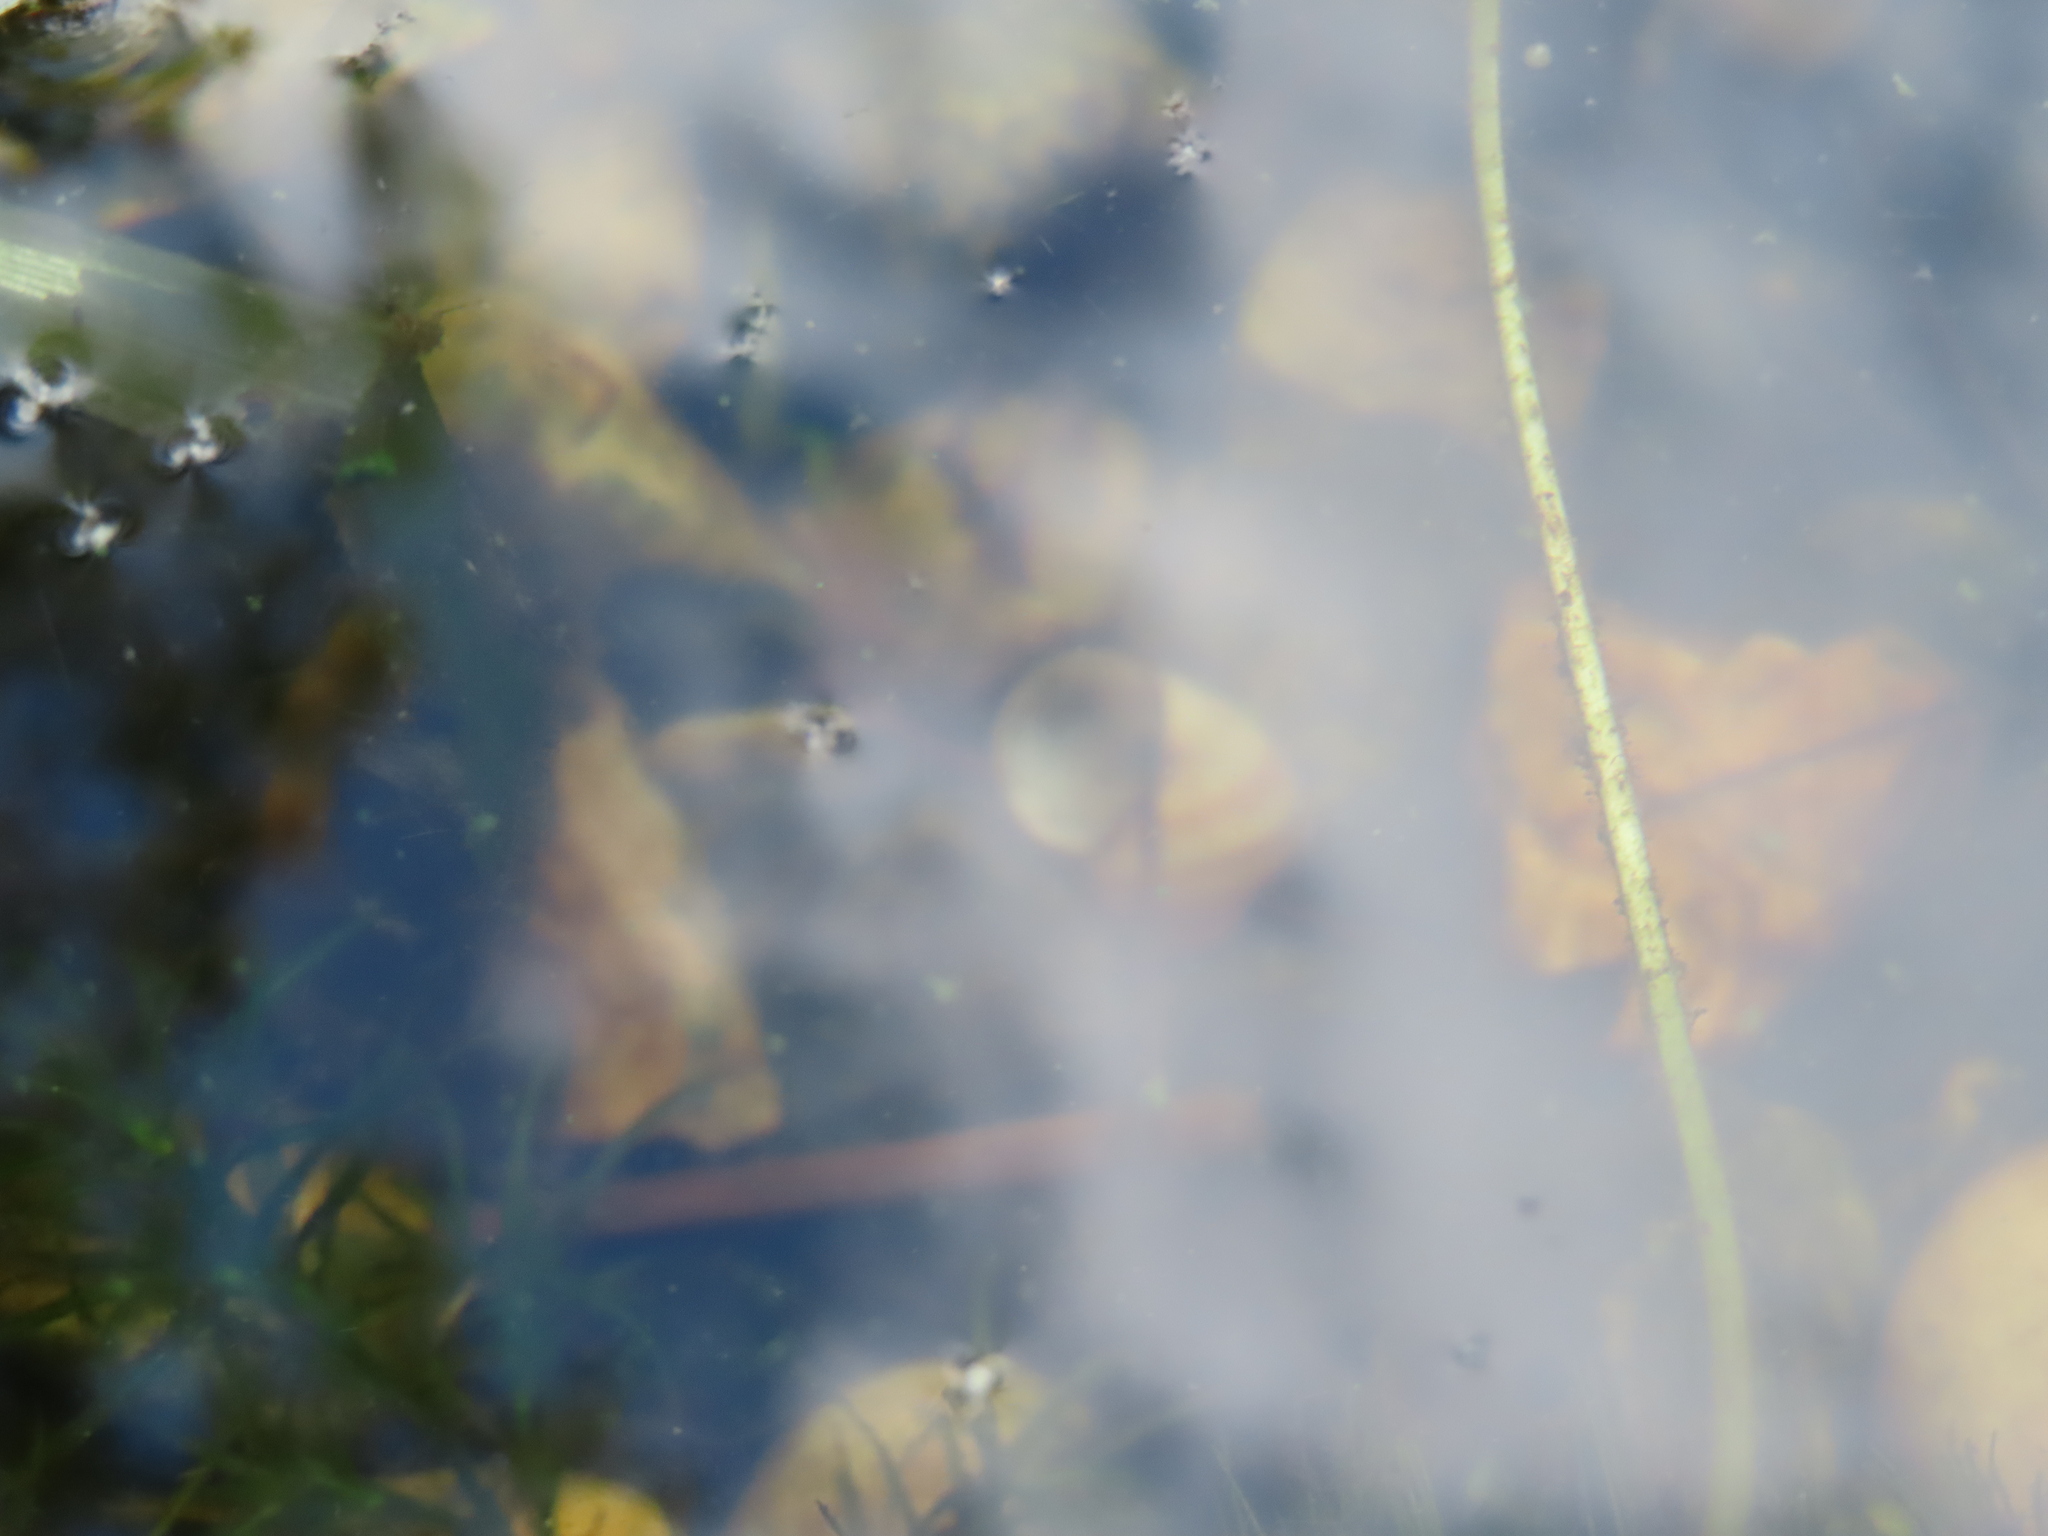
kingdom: Animalia
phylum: Mollusca
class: Gastropoda
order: Architaenioglossa
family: Viviparidae
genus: Callinina
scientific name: Callinina georgiana
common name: Banded mystery snail
